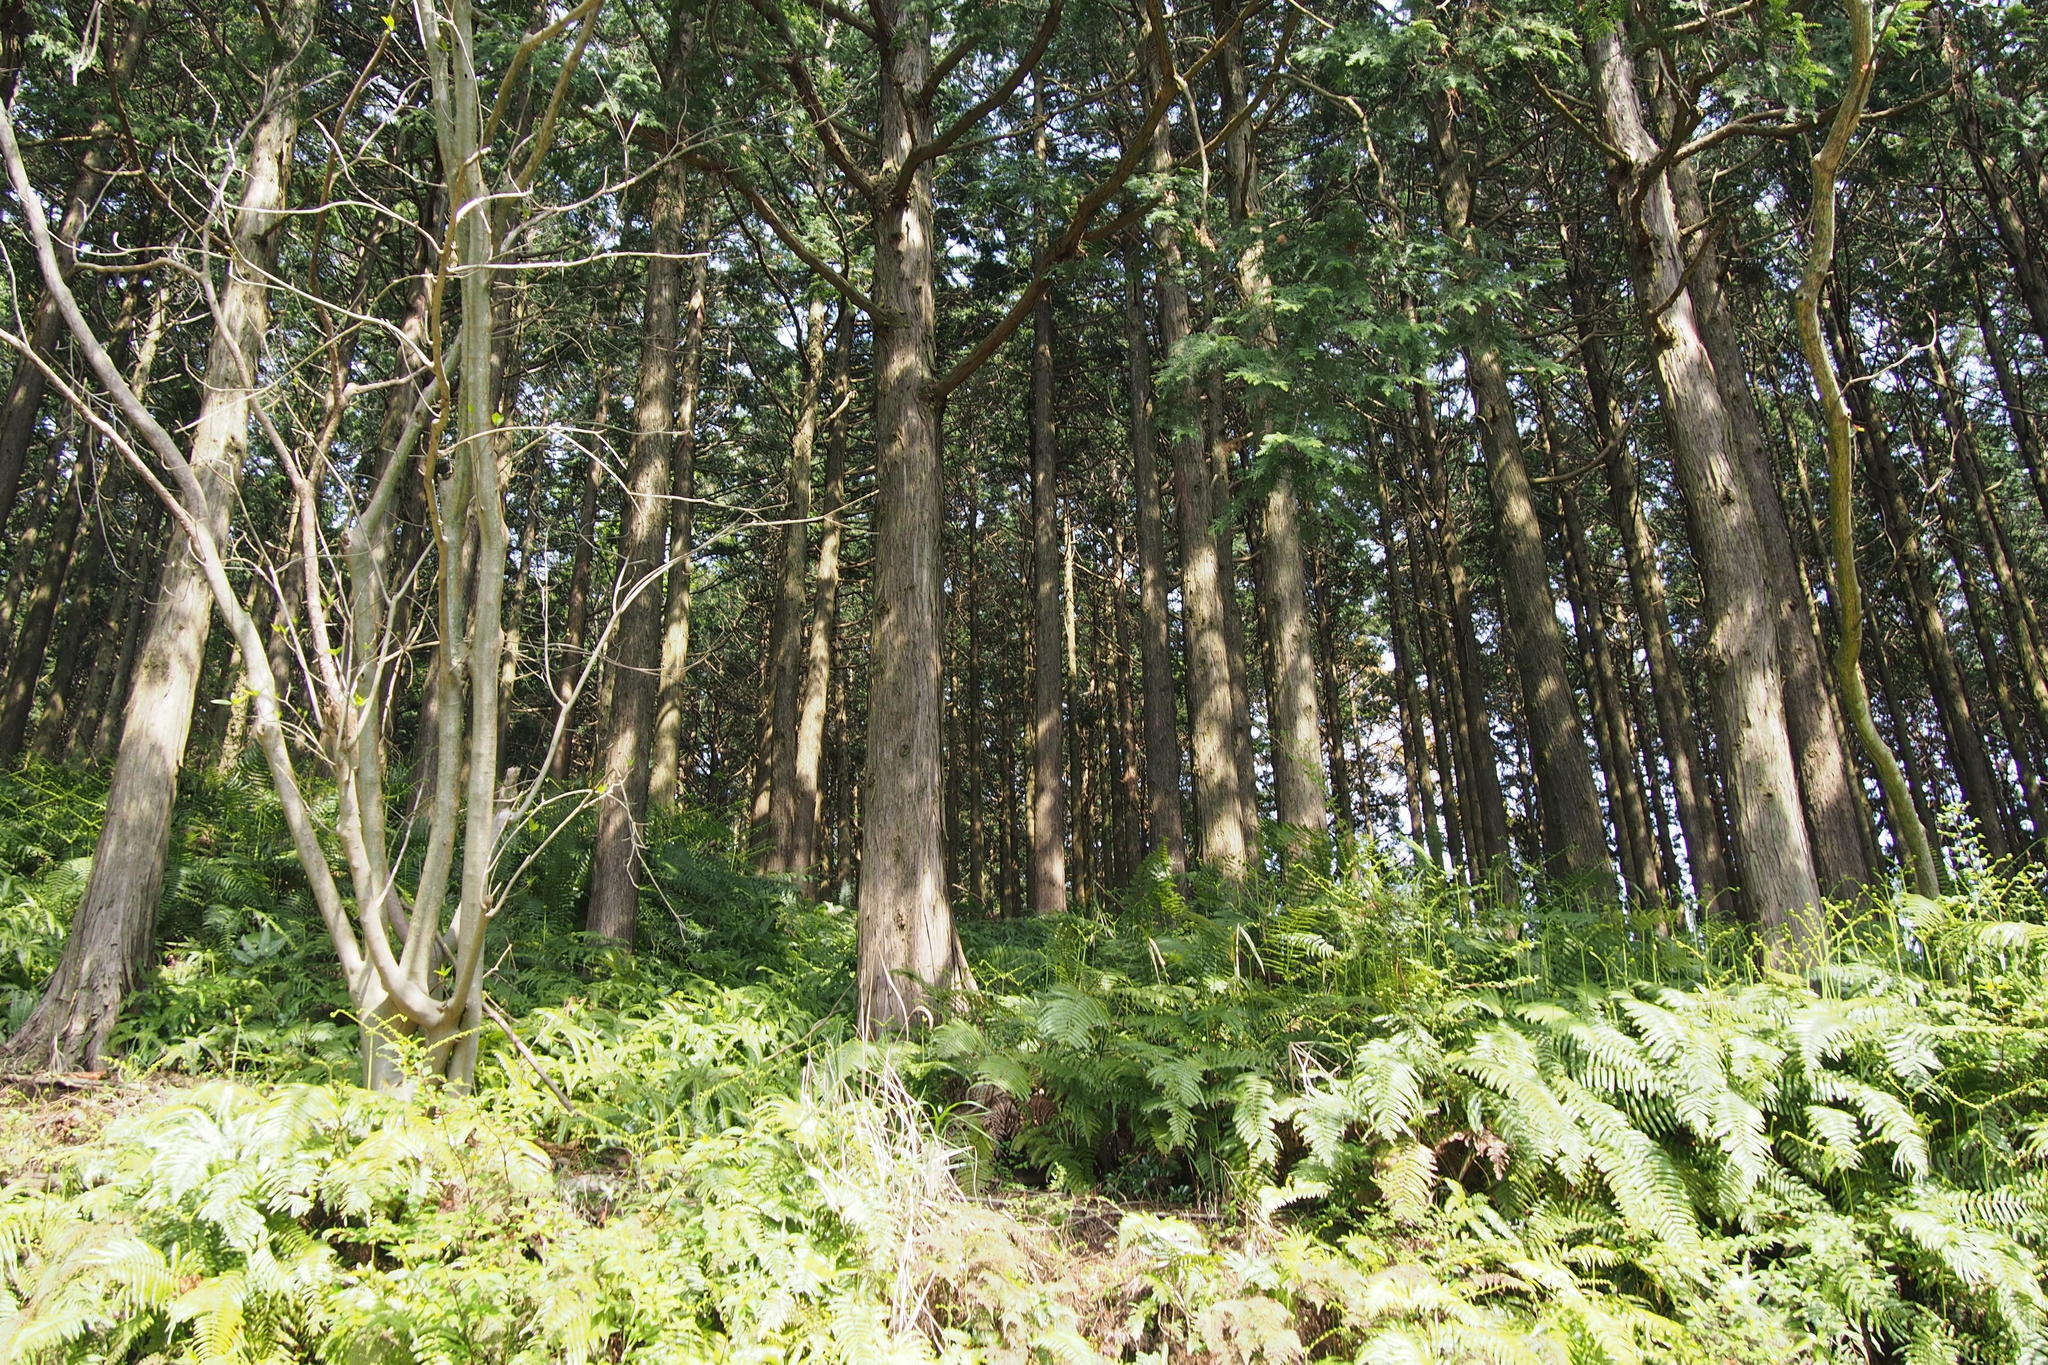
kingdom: Plantae
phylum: Tracheophyta
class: Pinopsida
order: Pinales
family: Cupressaceae
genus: Chamaecyparis
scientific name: Chamaecyparis obtusa
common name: Hinoki false cypress
